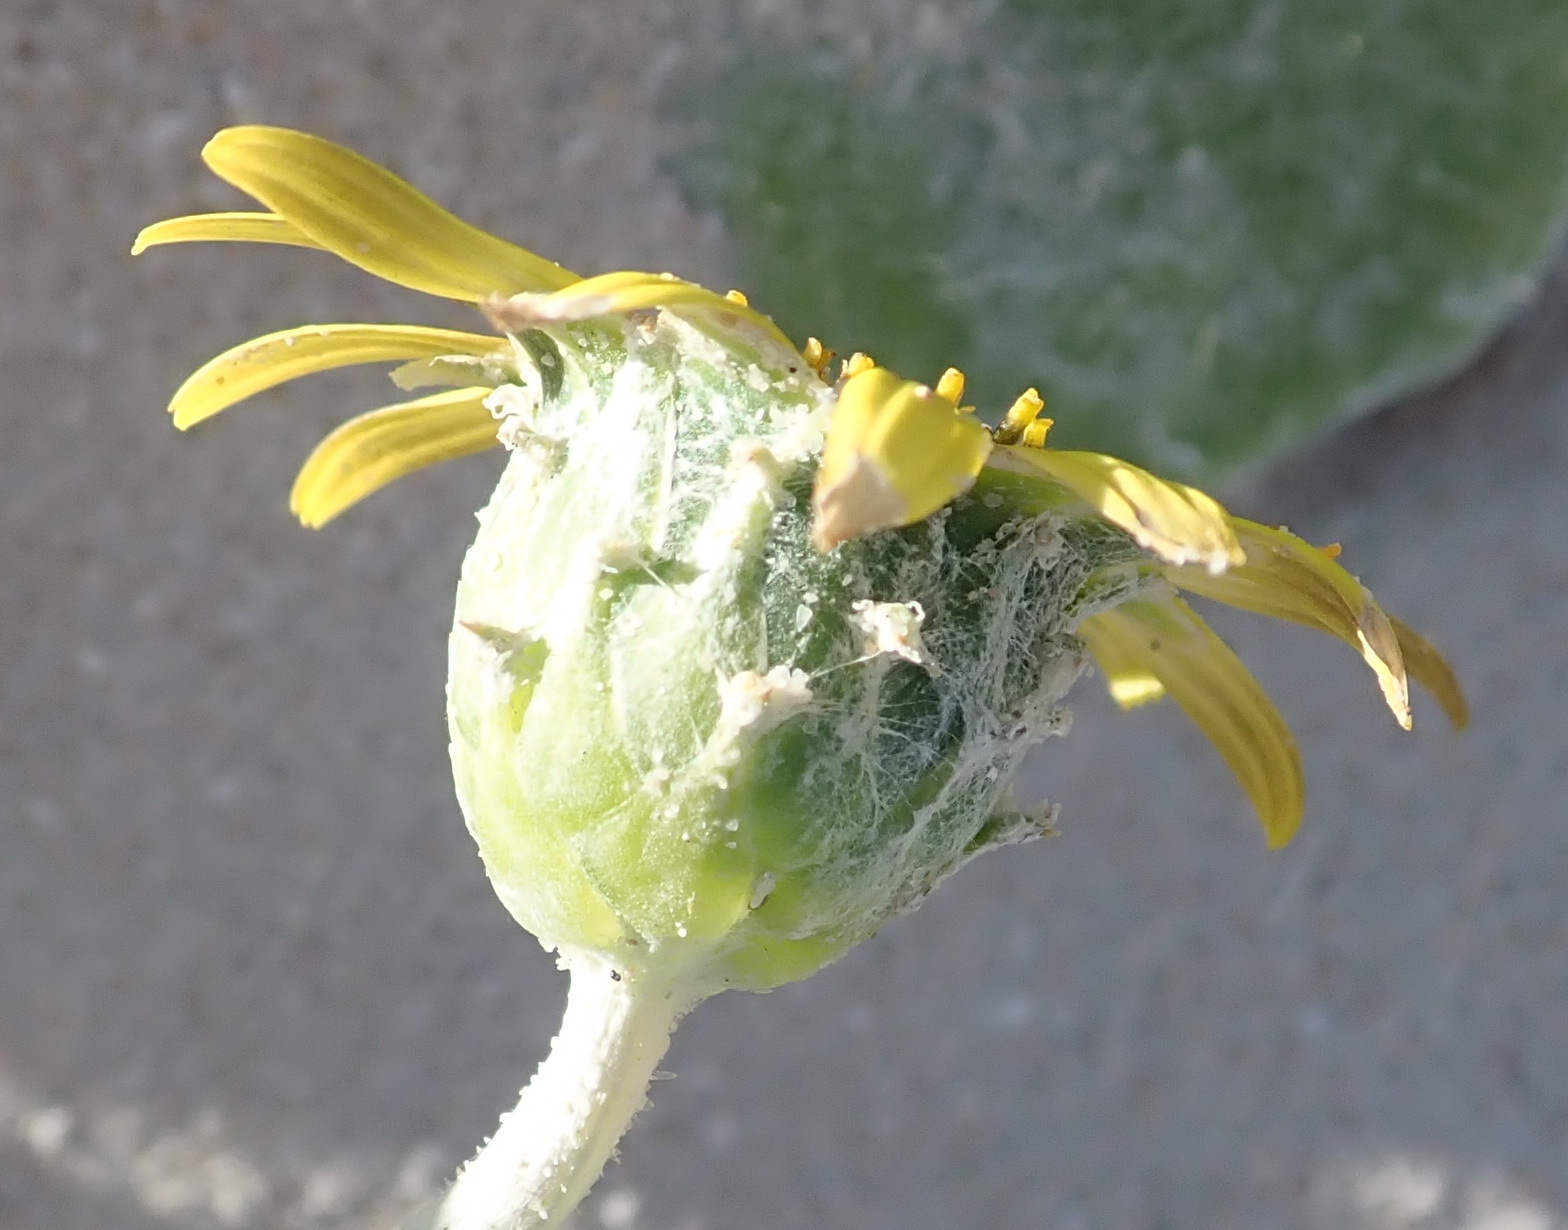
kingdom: Plantae
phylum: Tracheophyta
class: Magnoliopsida
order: Asterales
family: Asteraceae
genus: Arctotheca
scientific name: Arctotheca populifolia
